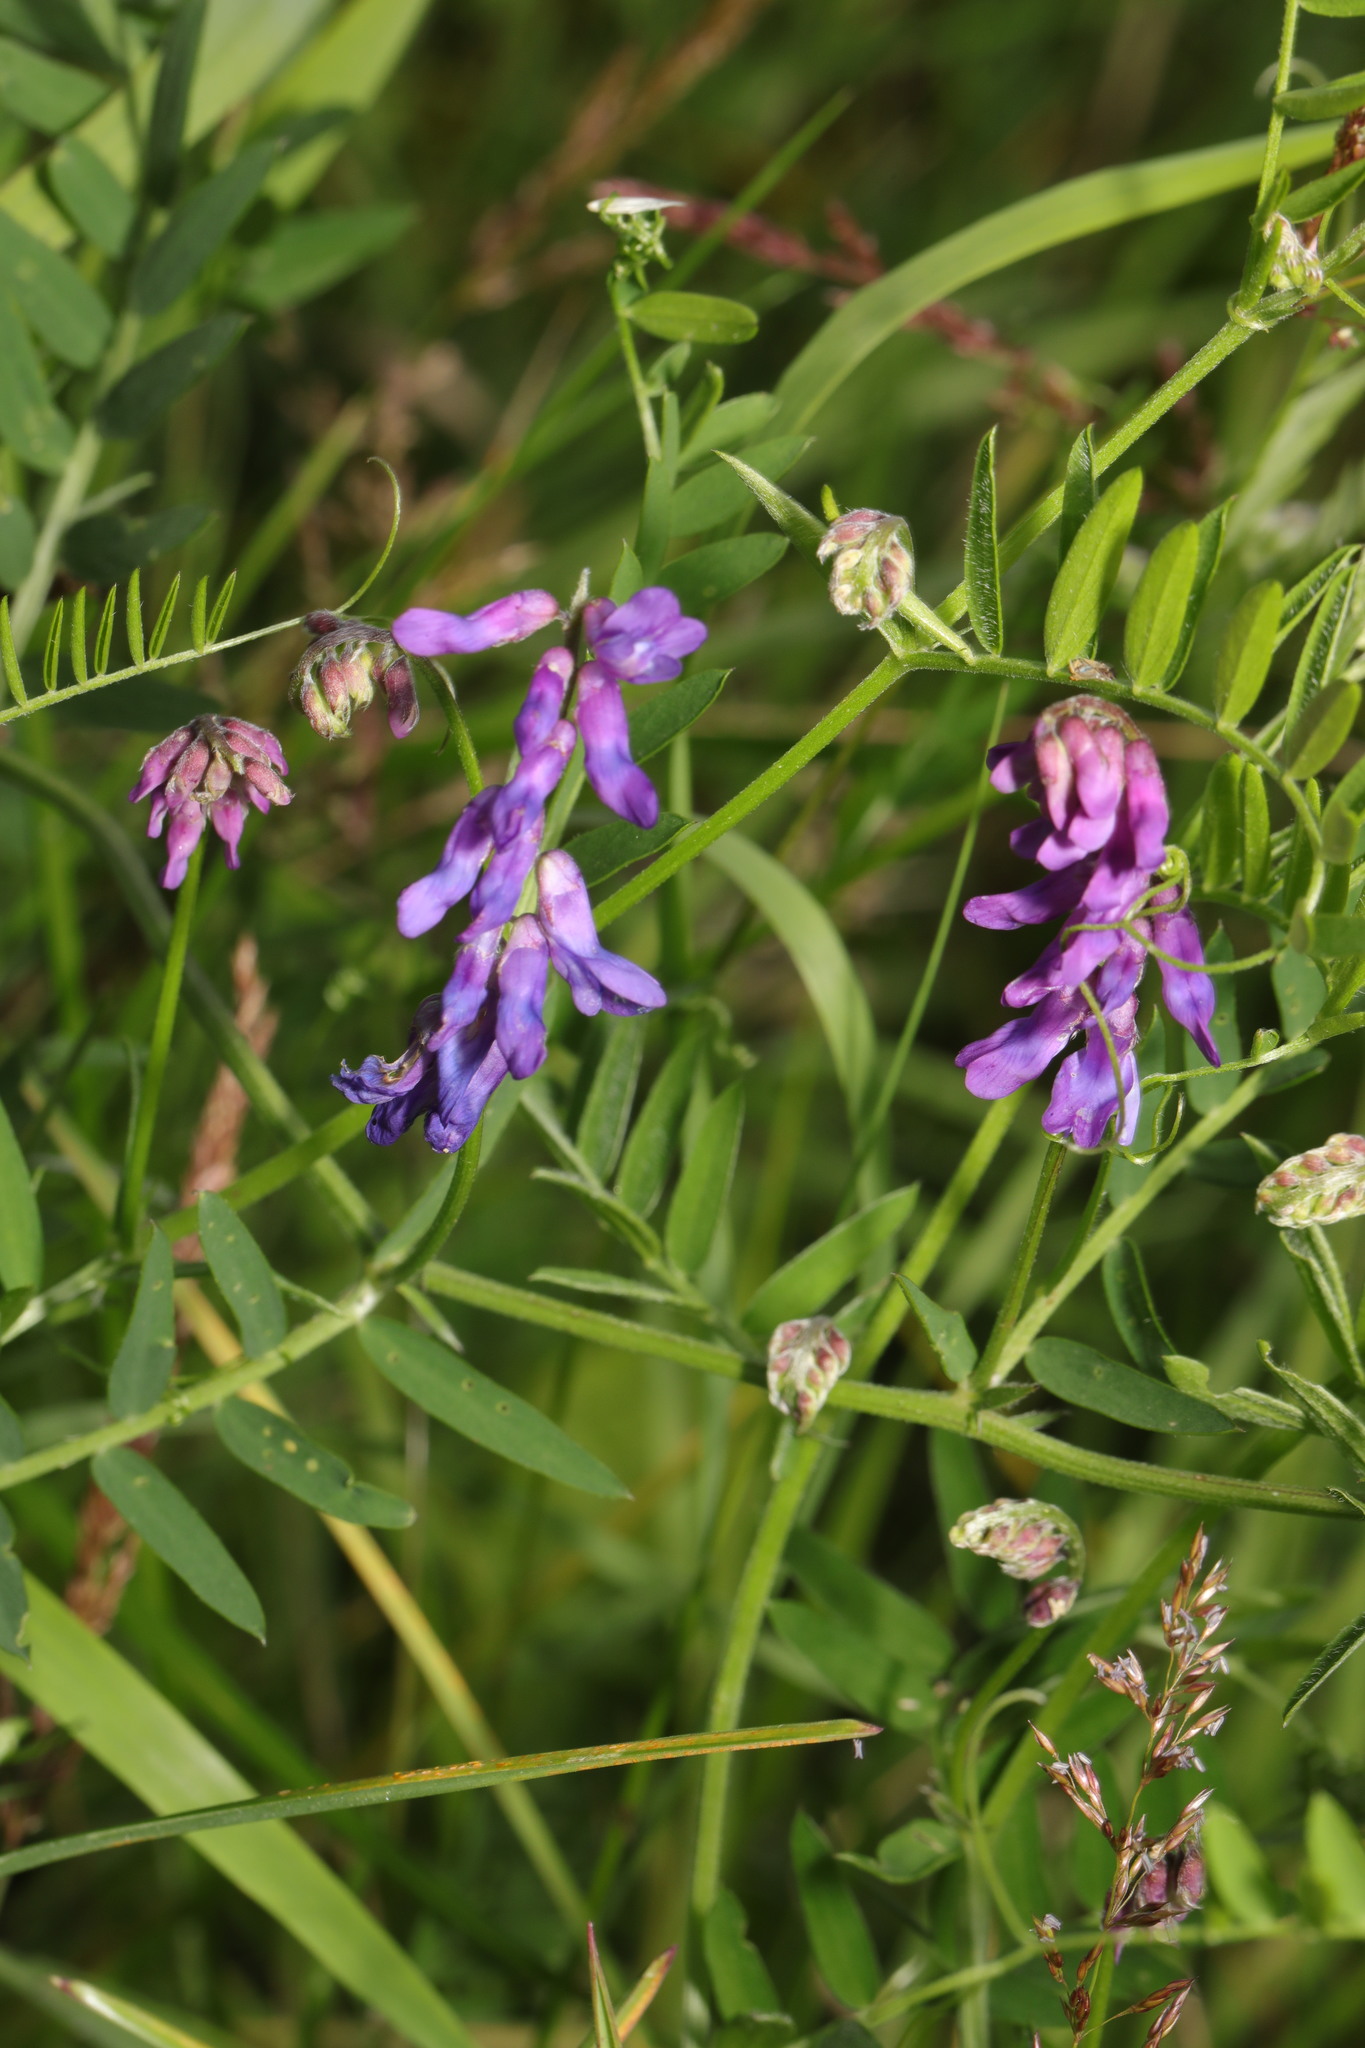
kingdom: Plantae
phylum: Tracheophyta
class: Magnoliopsida
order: Fabales
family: Fabaceae
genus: Vicia
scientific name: Vicia cracca
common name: Bird vetch
